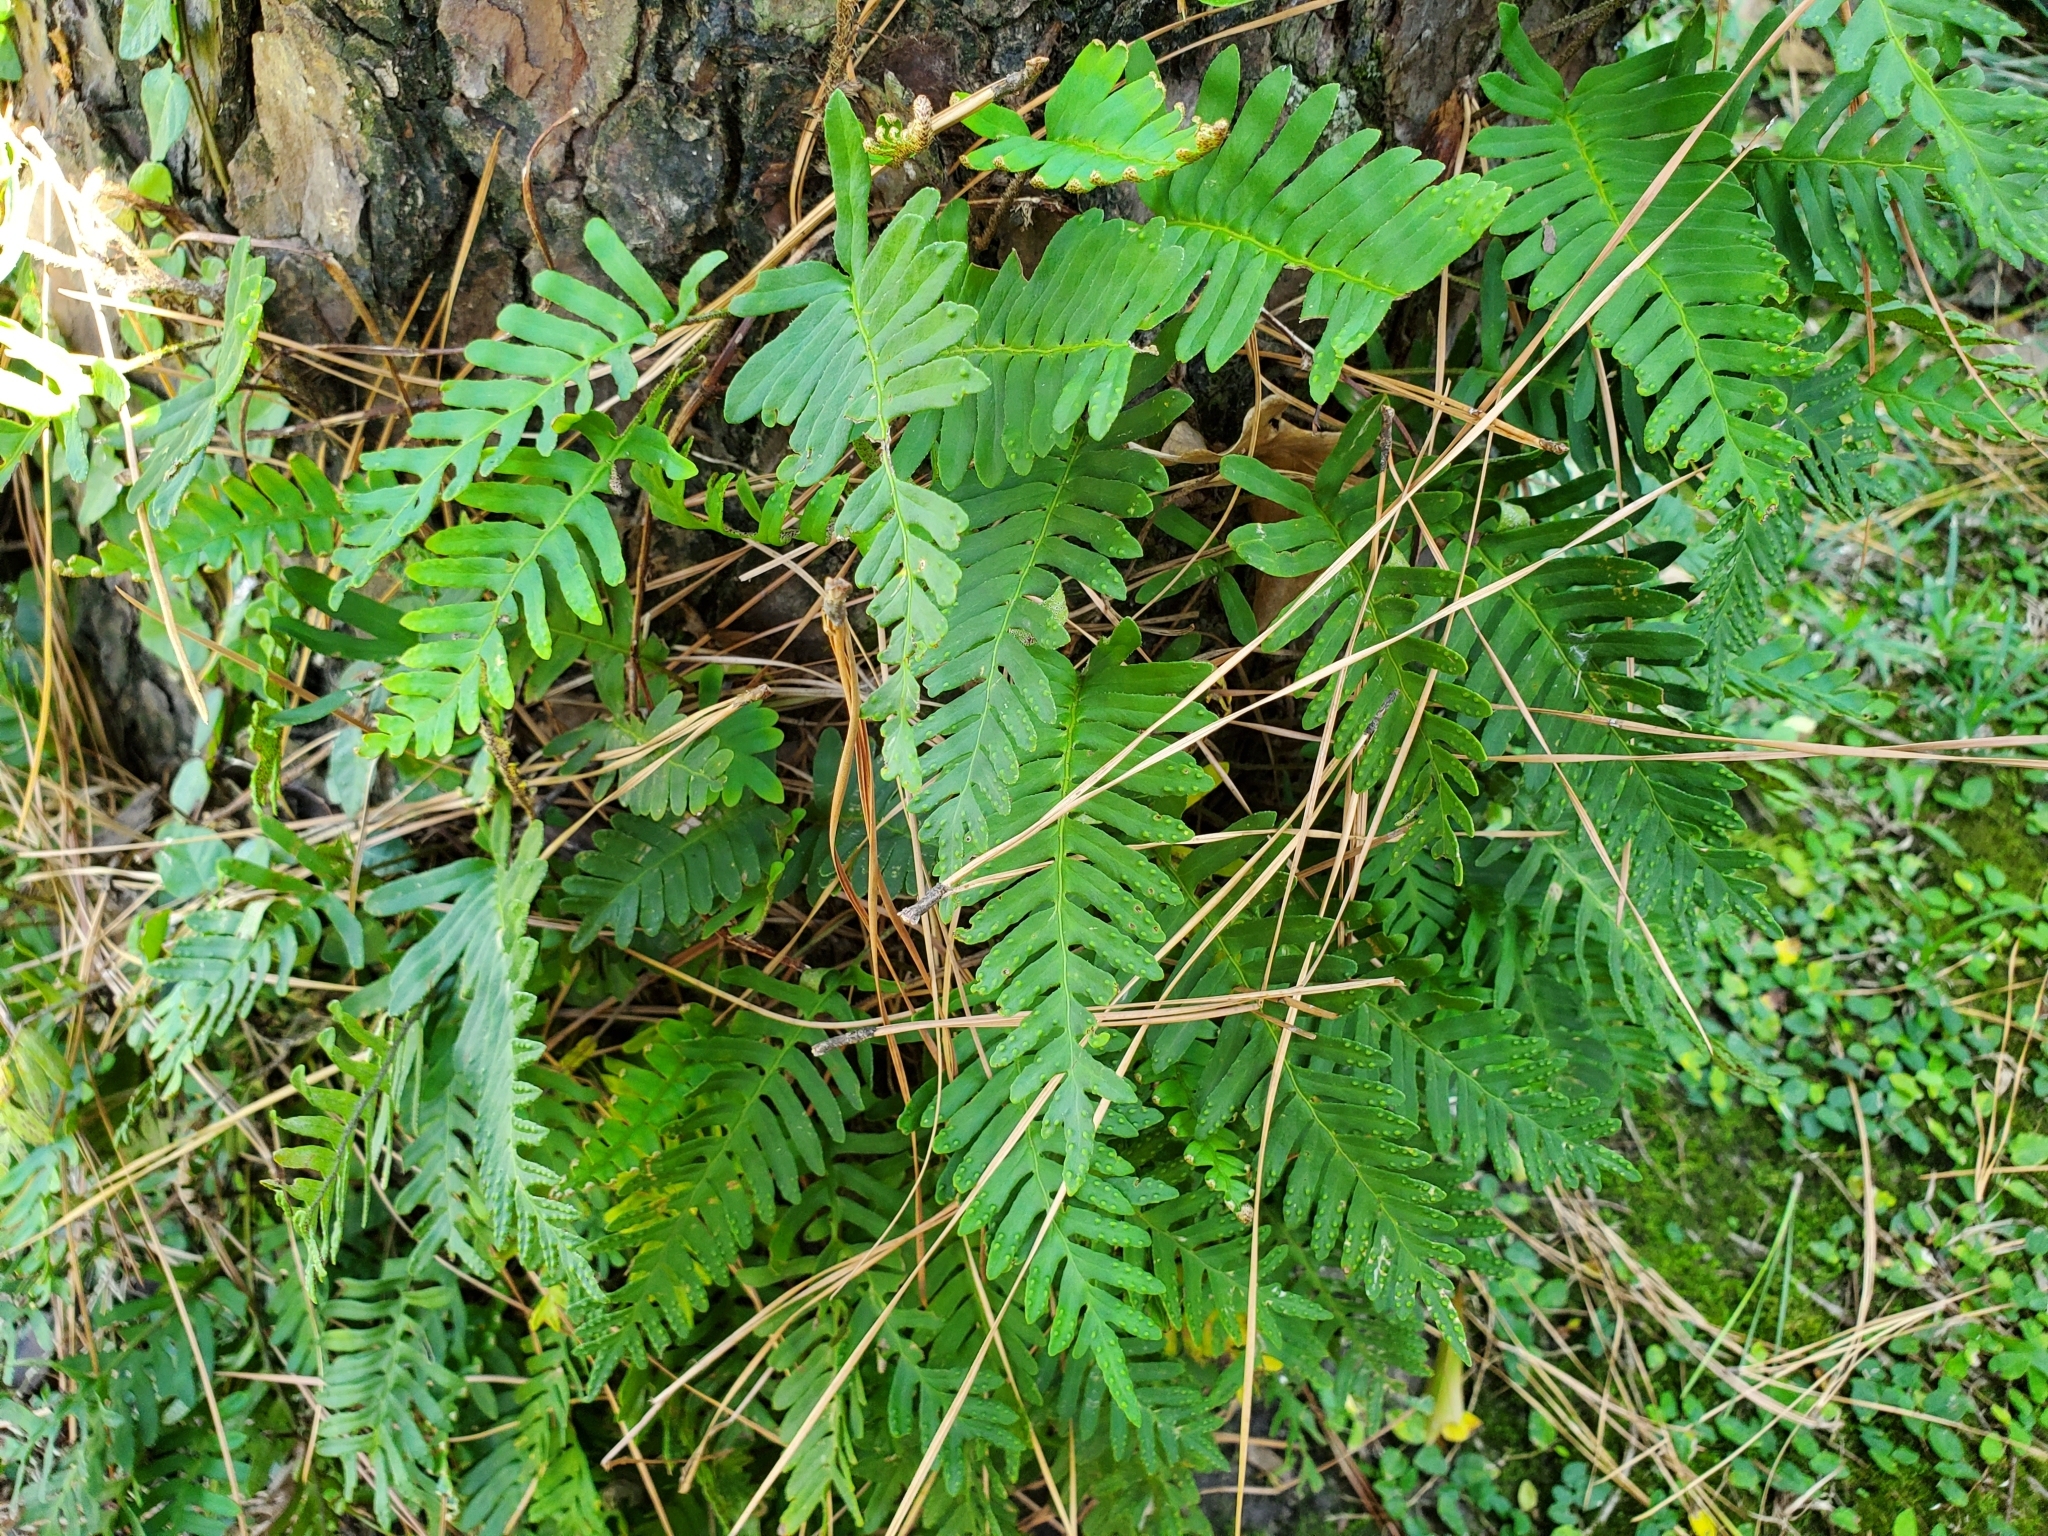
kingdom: Plantae
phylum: Tracheophyta
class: Polypodiopsida
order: Polypodiales
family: Polypodiaceae
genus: Pleopeltis
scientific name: Pleopeltis michauxiana
